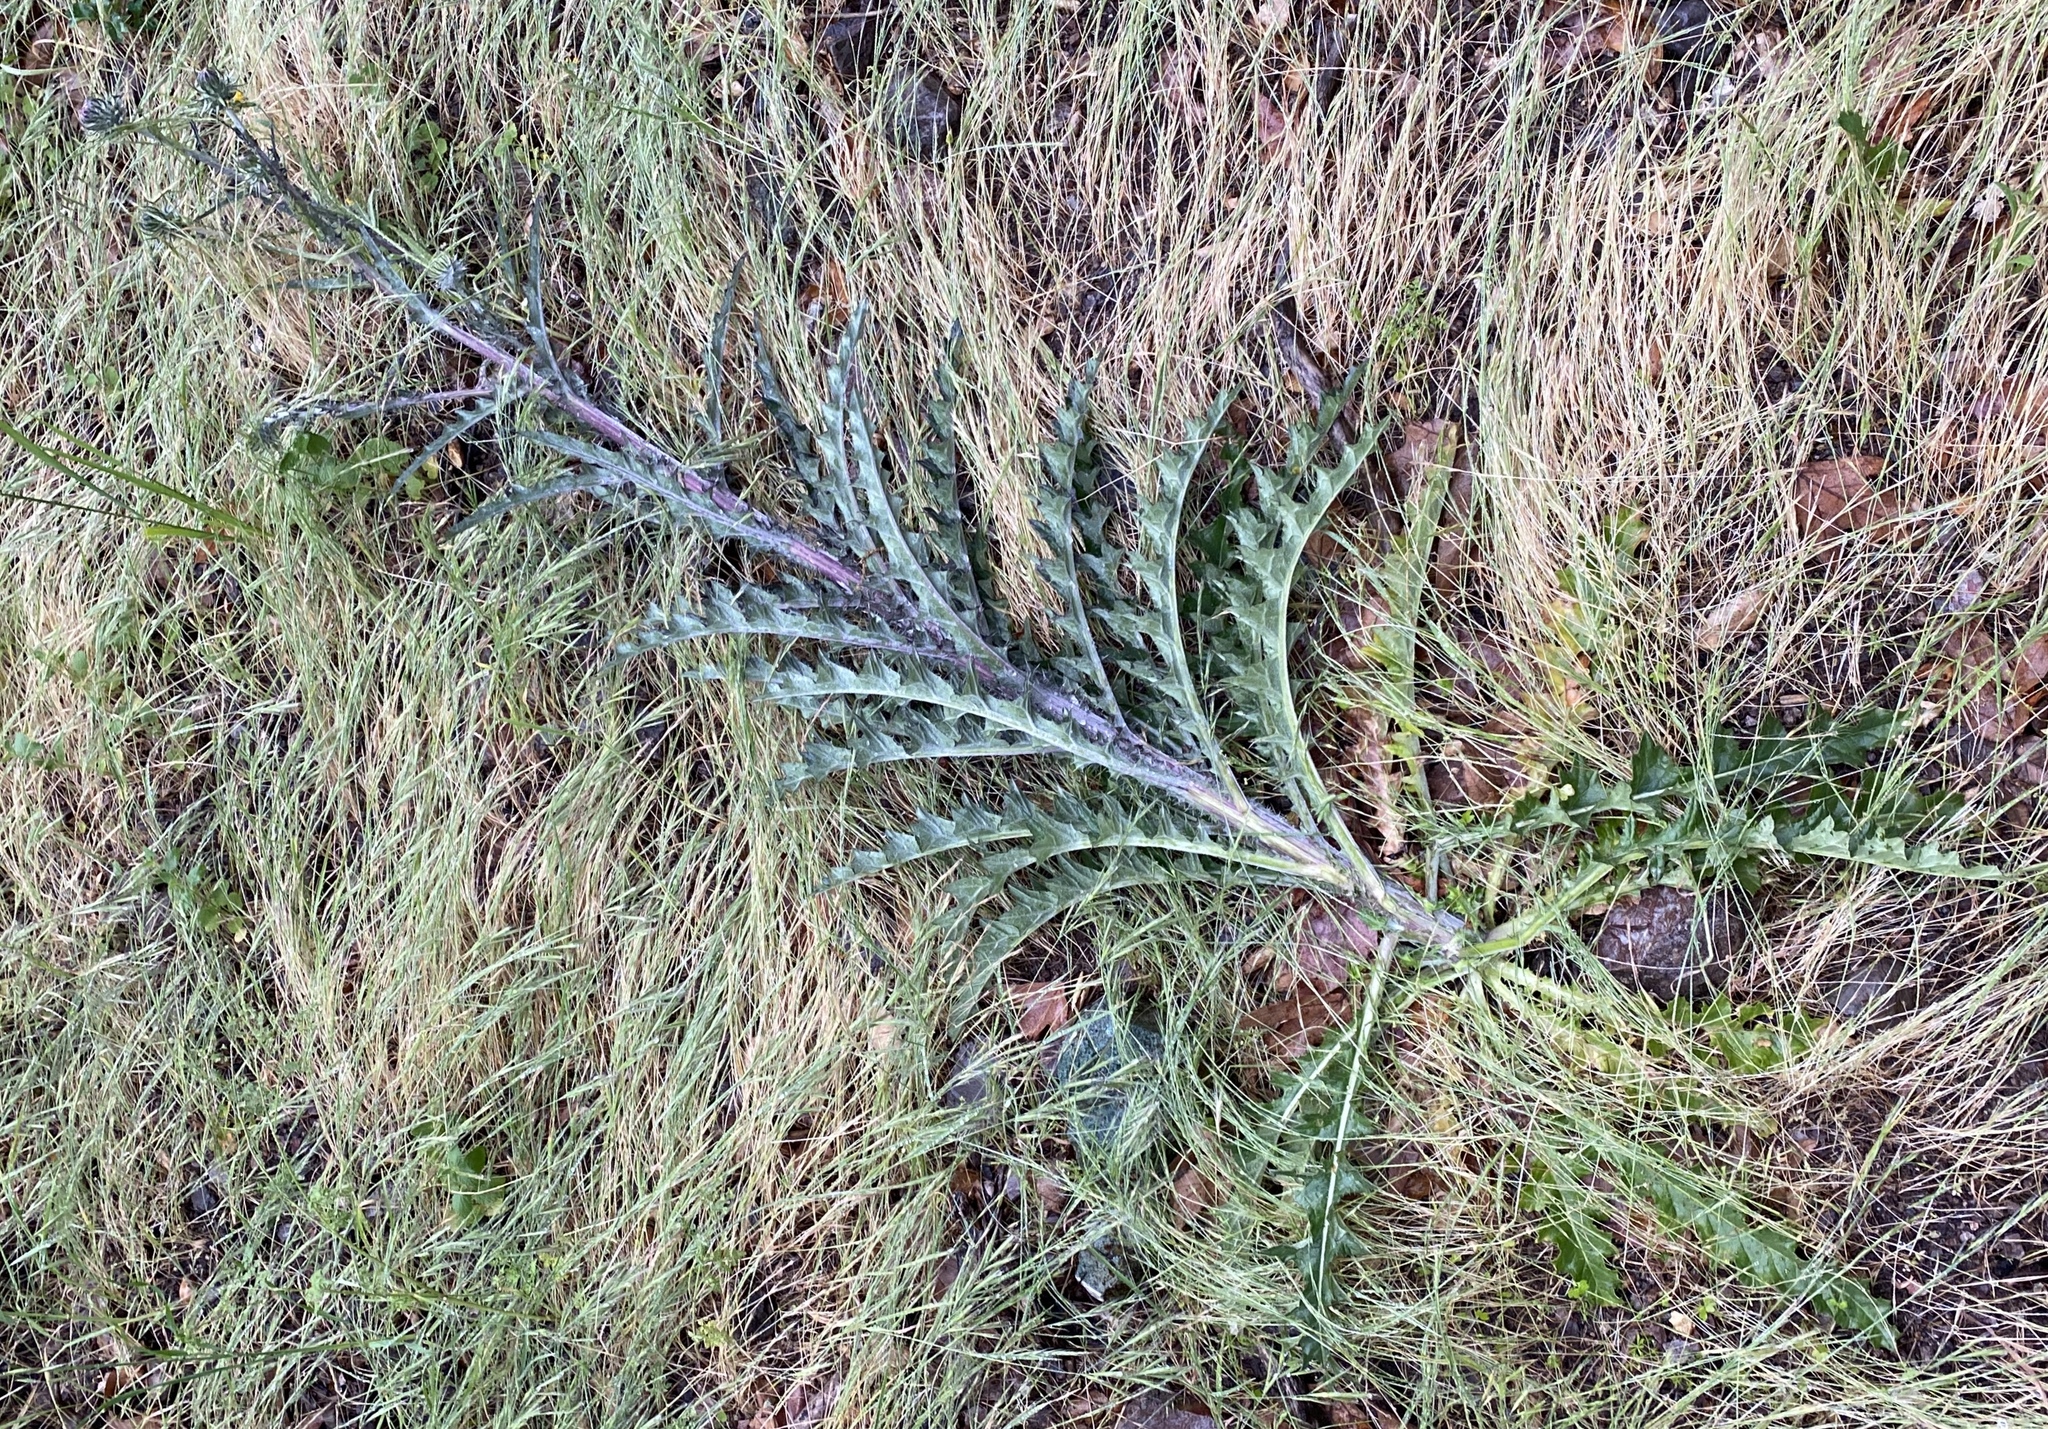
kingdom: Plantae
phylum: Tracheophyta
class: Magnoliopsida
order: Asterales
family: Asteraceae
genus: Cirsium
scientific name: Cirsium occidentale
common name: Western thistle
